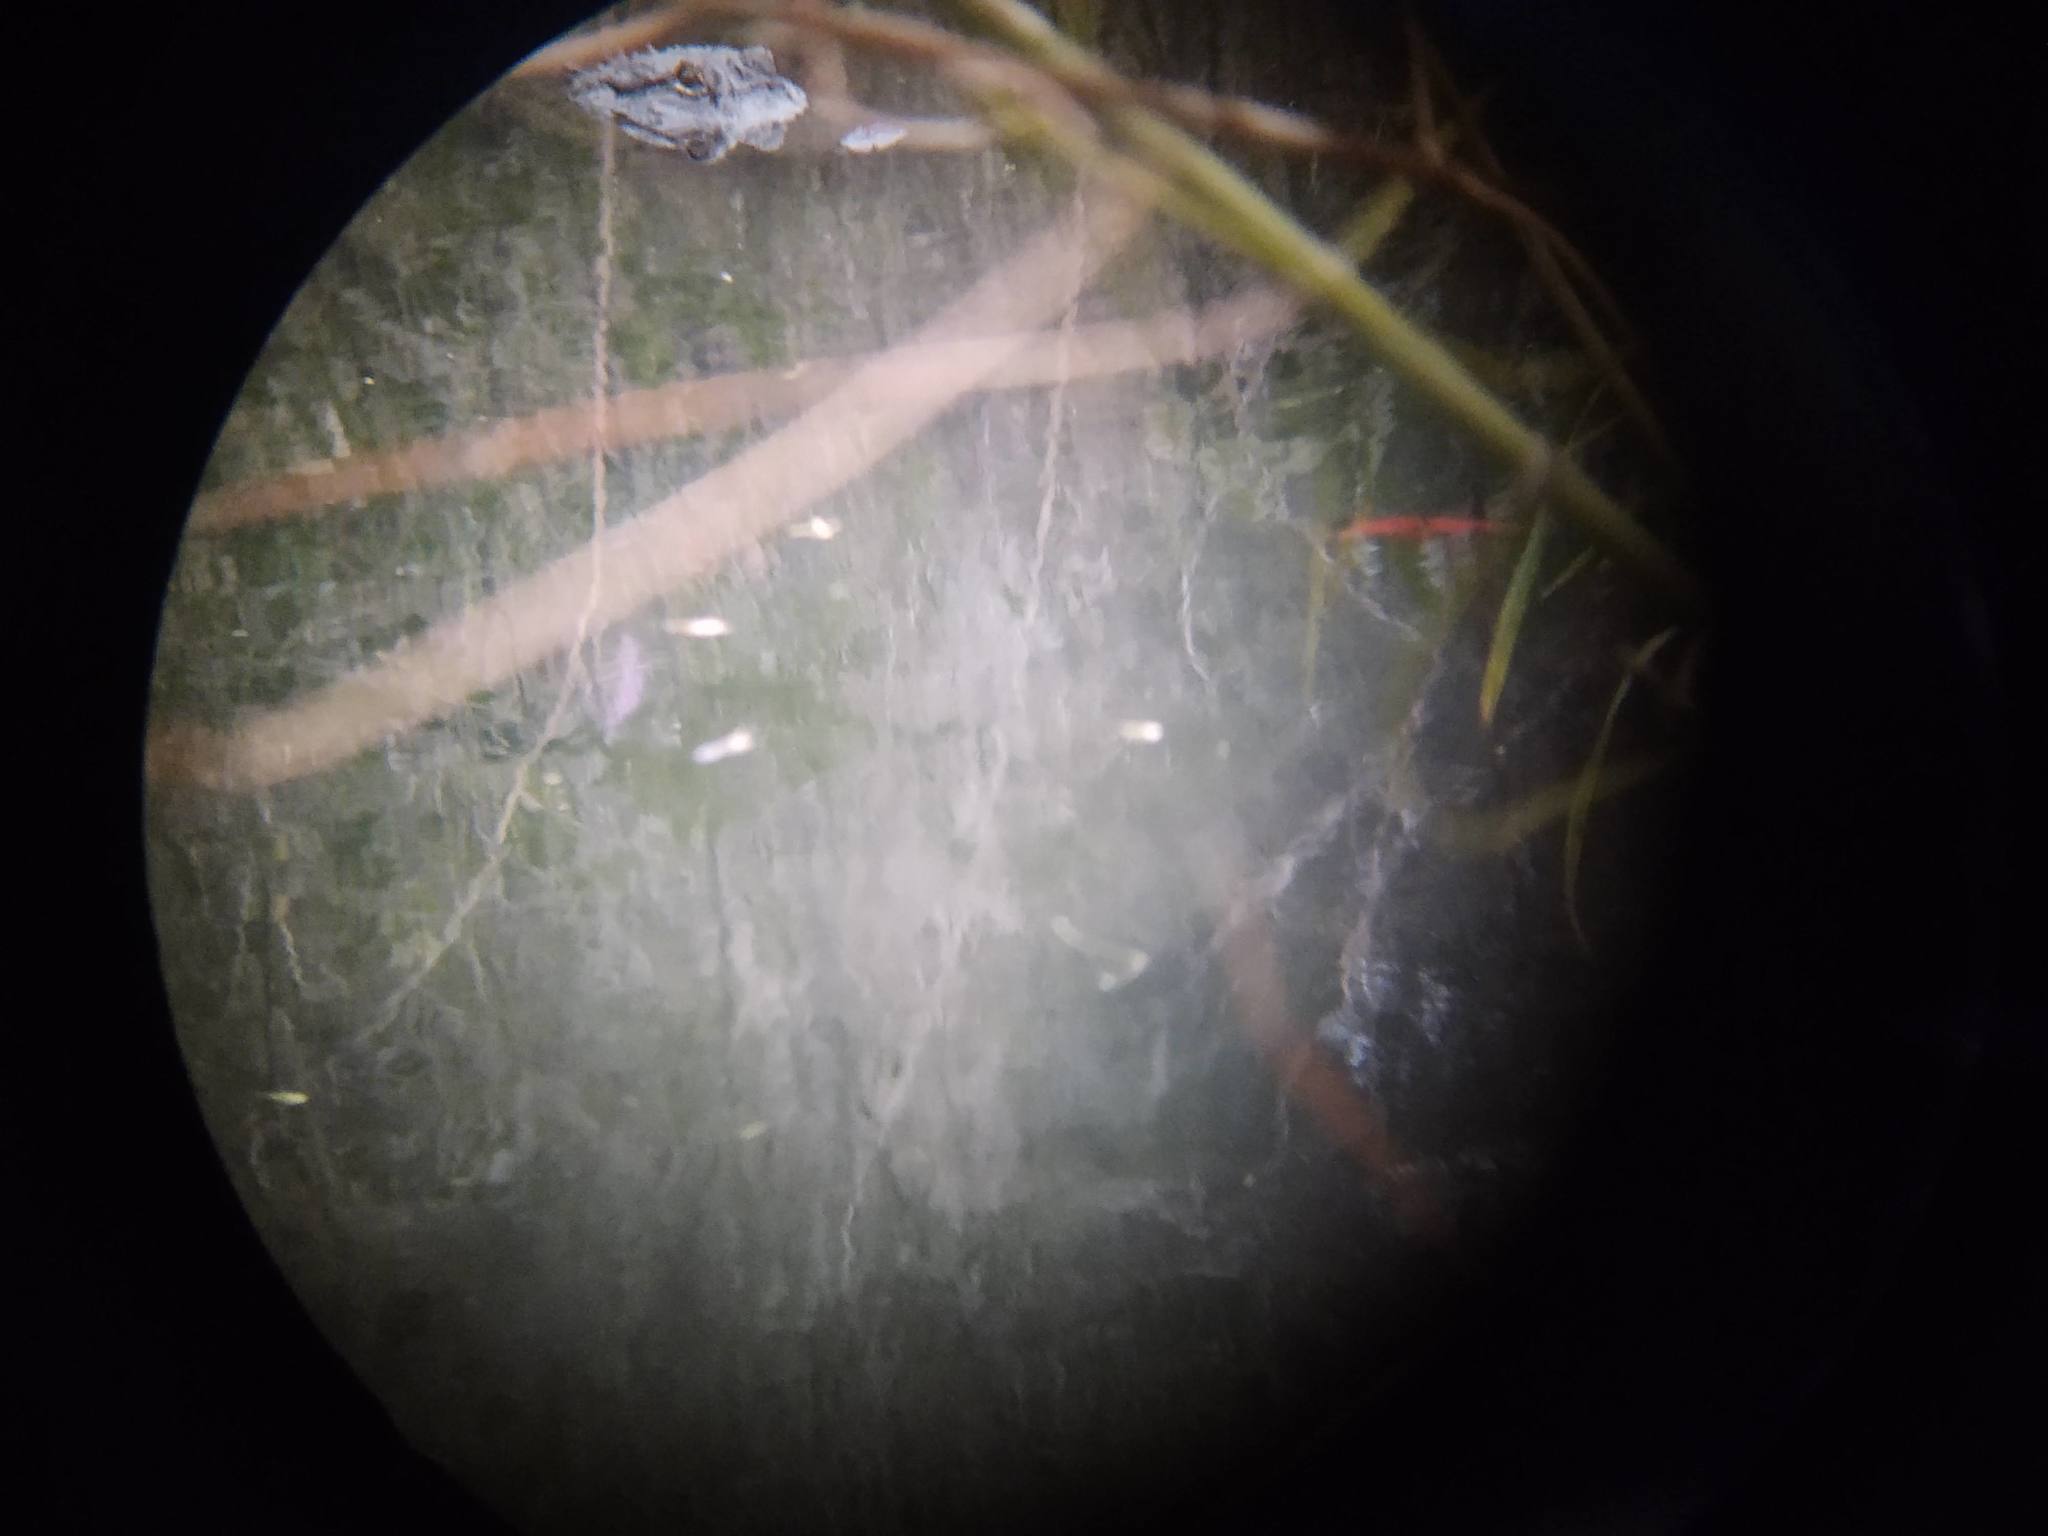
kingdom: Animalia
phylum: Chordata
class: Crocodylia
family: Alligatoridae
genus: Alligator
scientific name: Alligator mississippiensis
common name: American alligator
